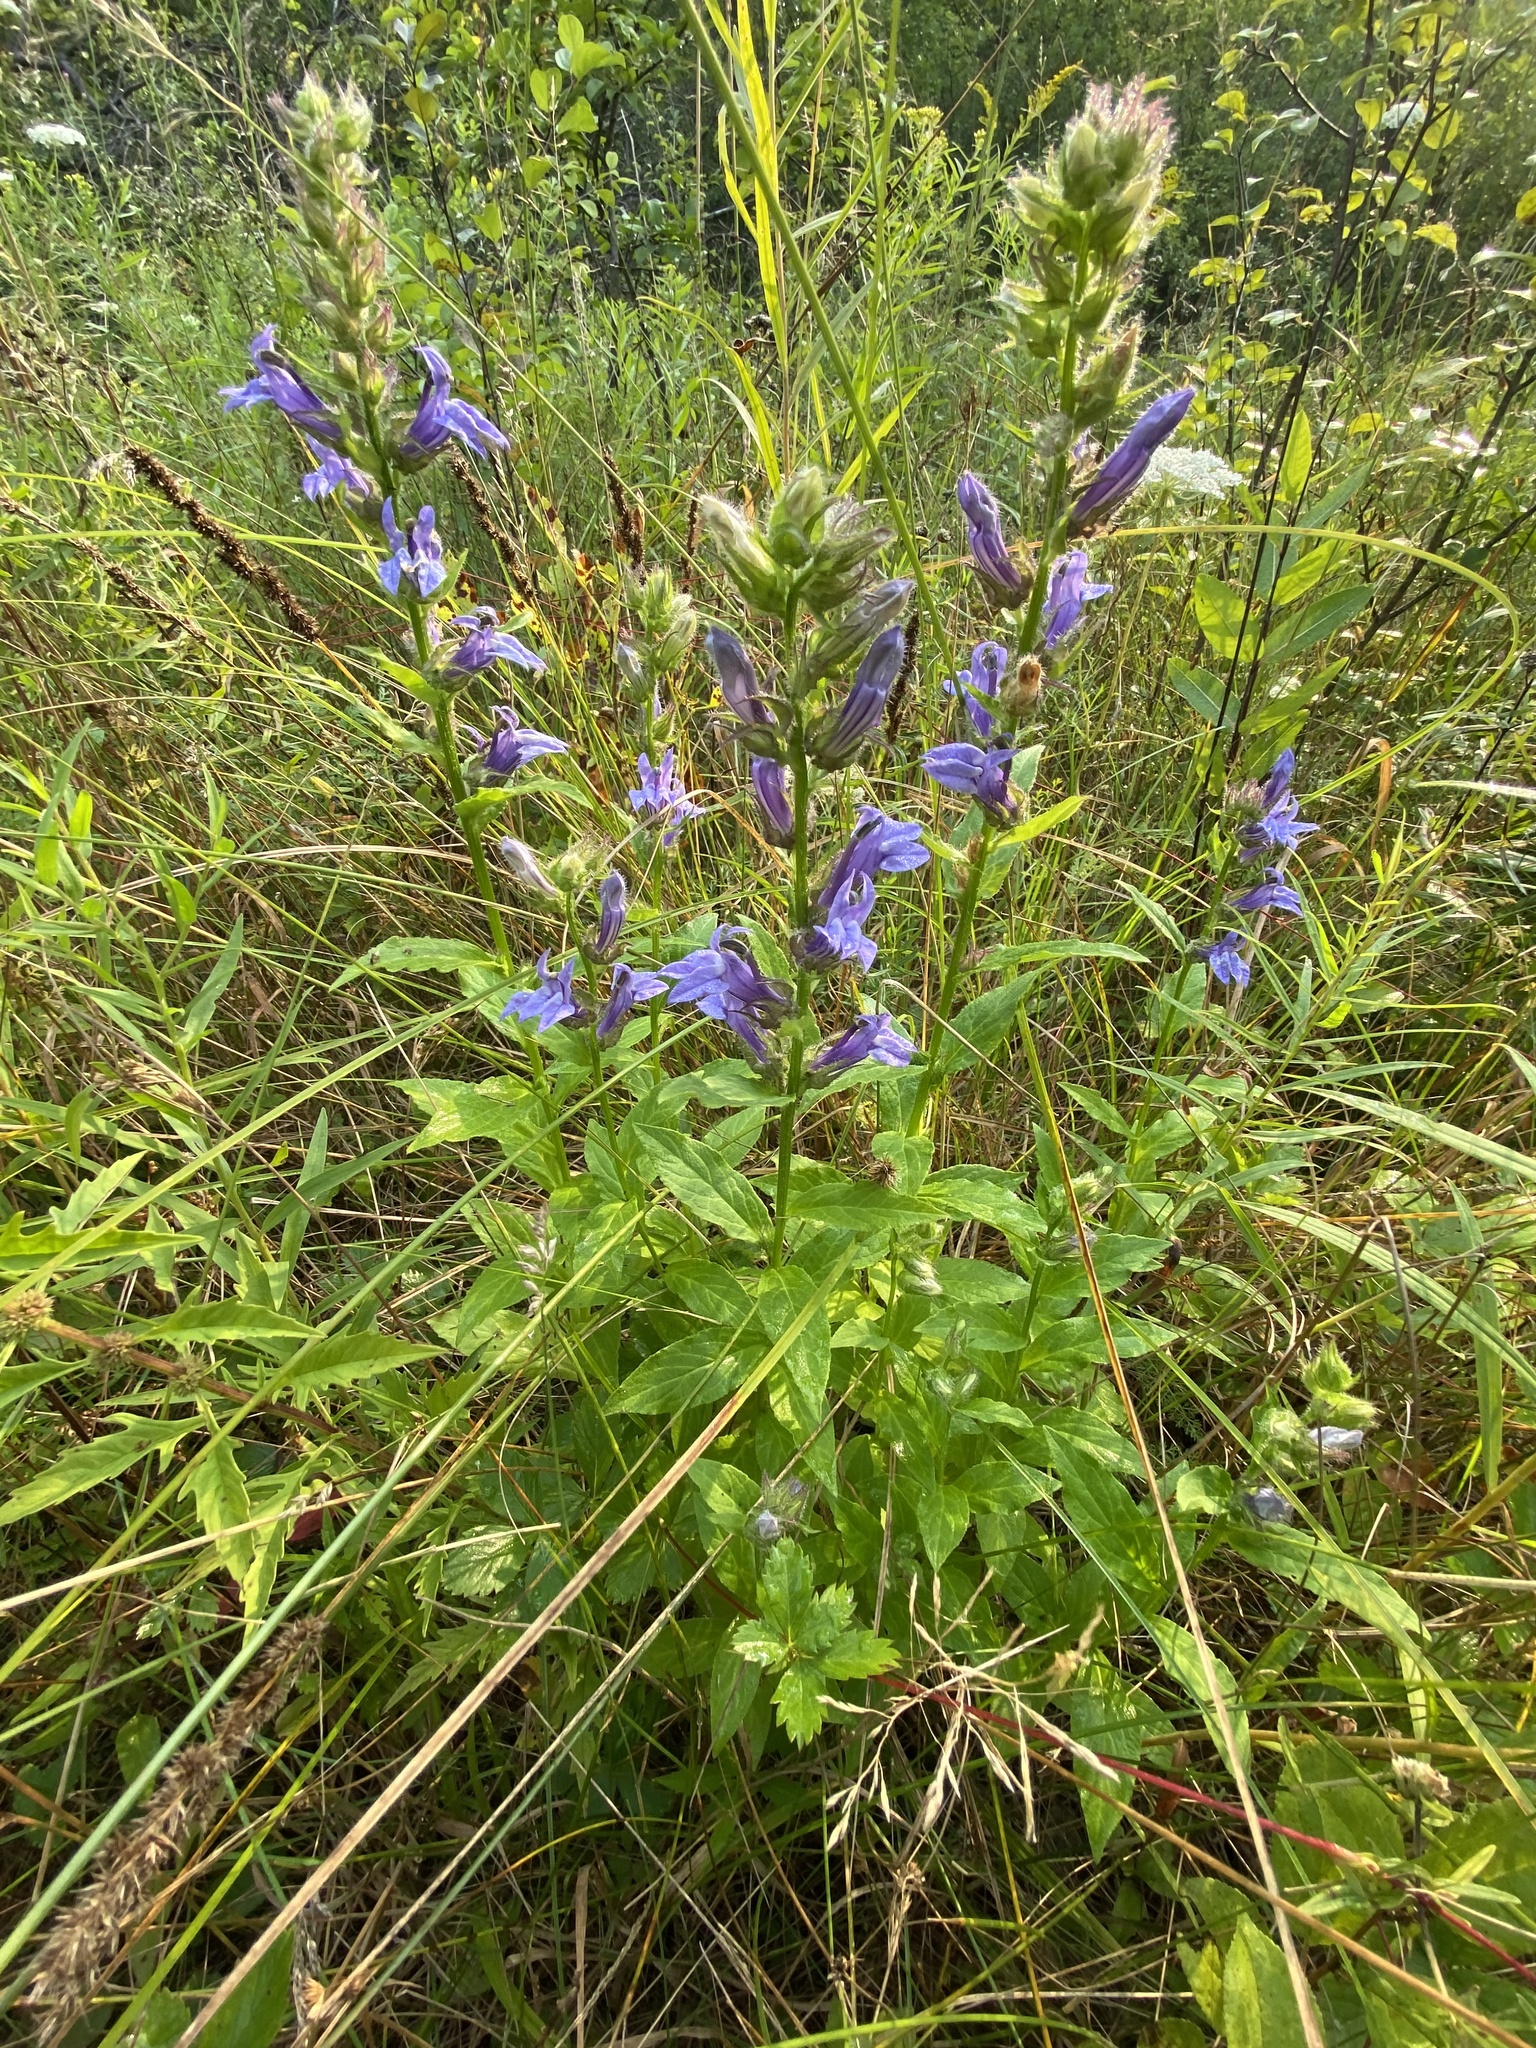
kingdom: Plantae
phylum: Tracheophyta
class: Magnoliopsida
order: Asterales
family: Campanulaceae
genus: Lobelia
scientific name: Lobelia siphilitica
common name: Great lobelia
